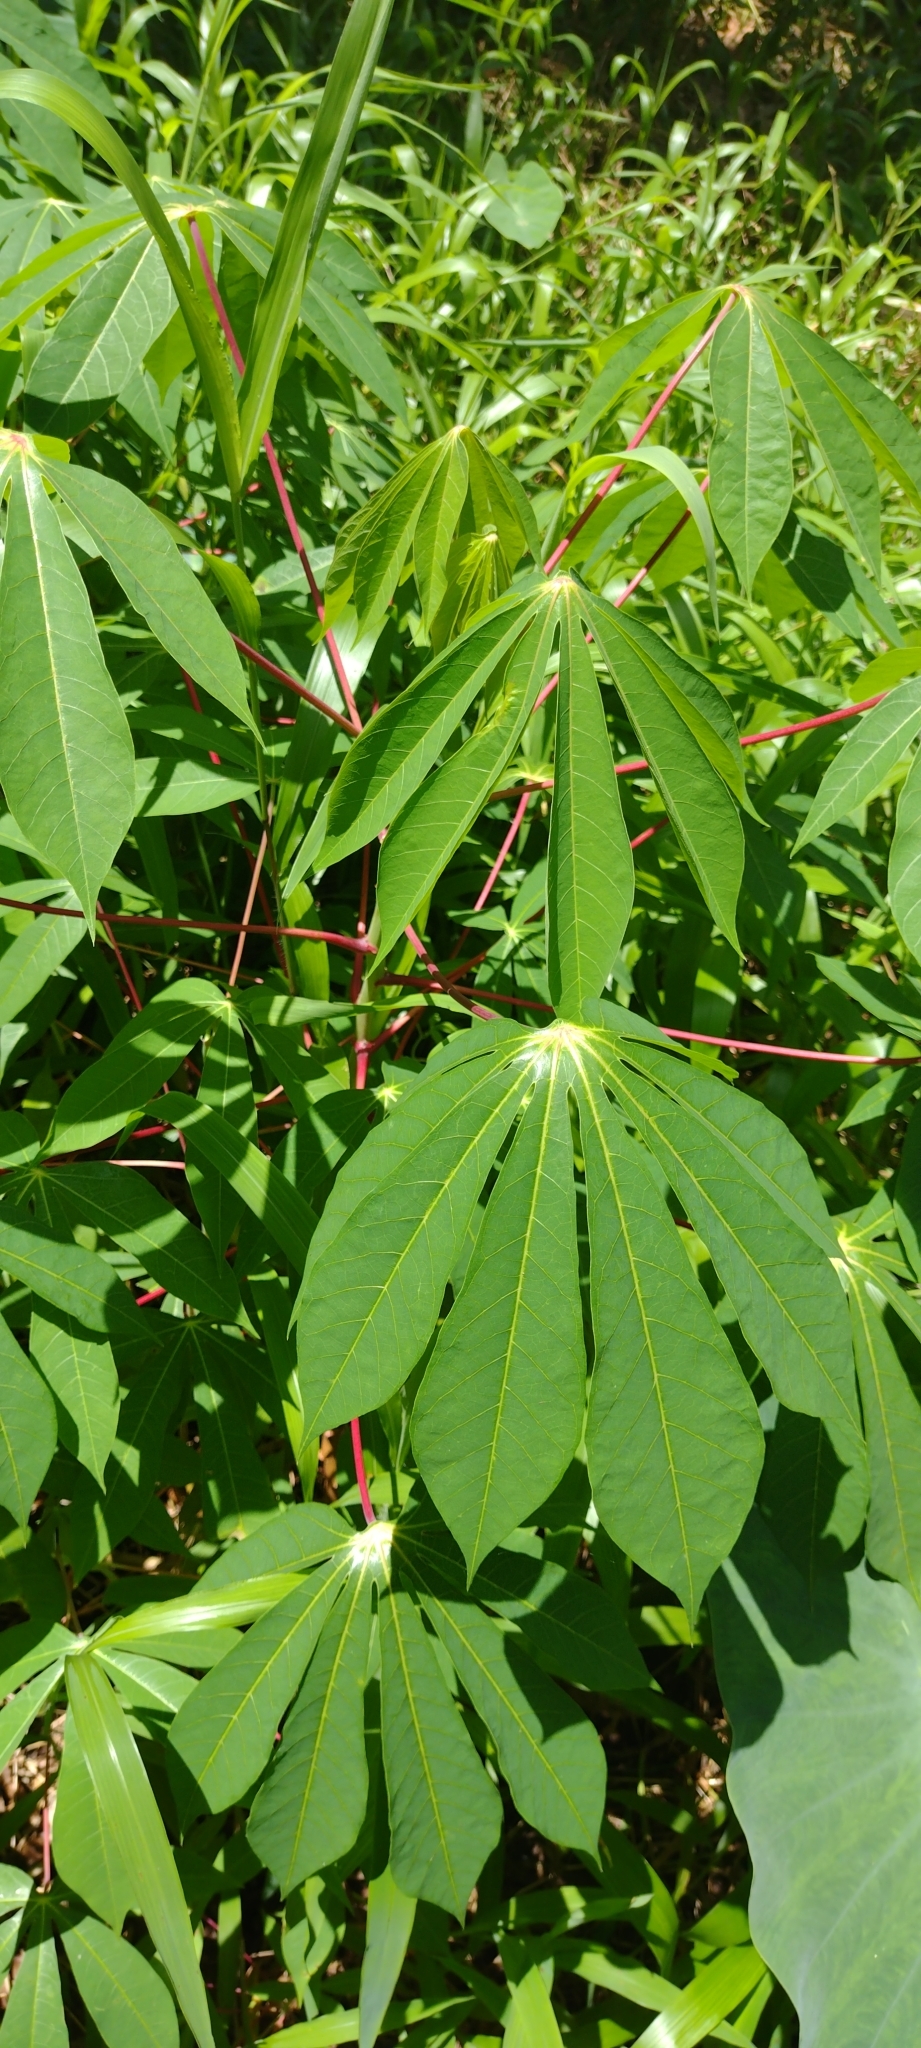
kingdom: Plantae
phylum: Tracheophyta
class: Magnoliopsida
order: Malpighiales
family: Euphorbiaceae
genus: Manihot
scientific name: Manihot esculenta
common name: Cassava
